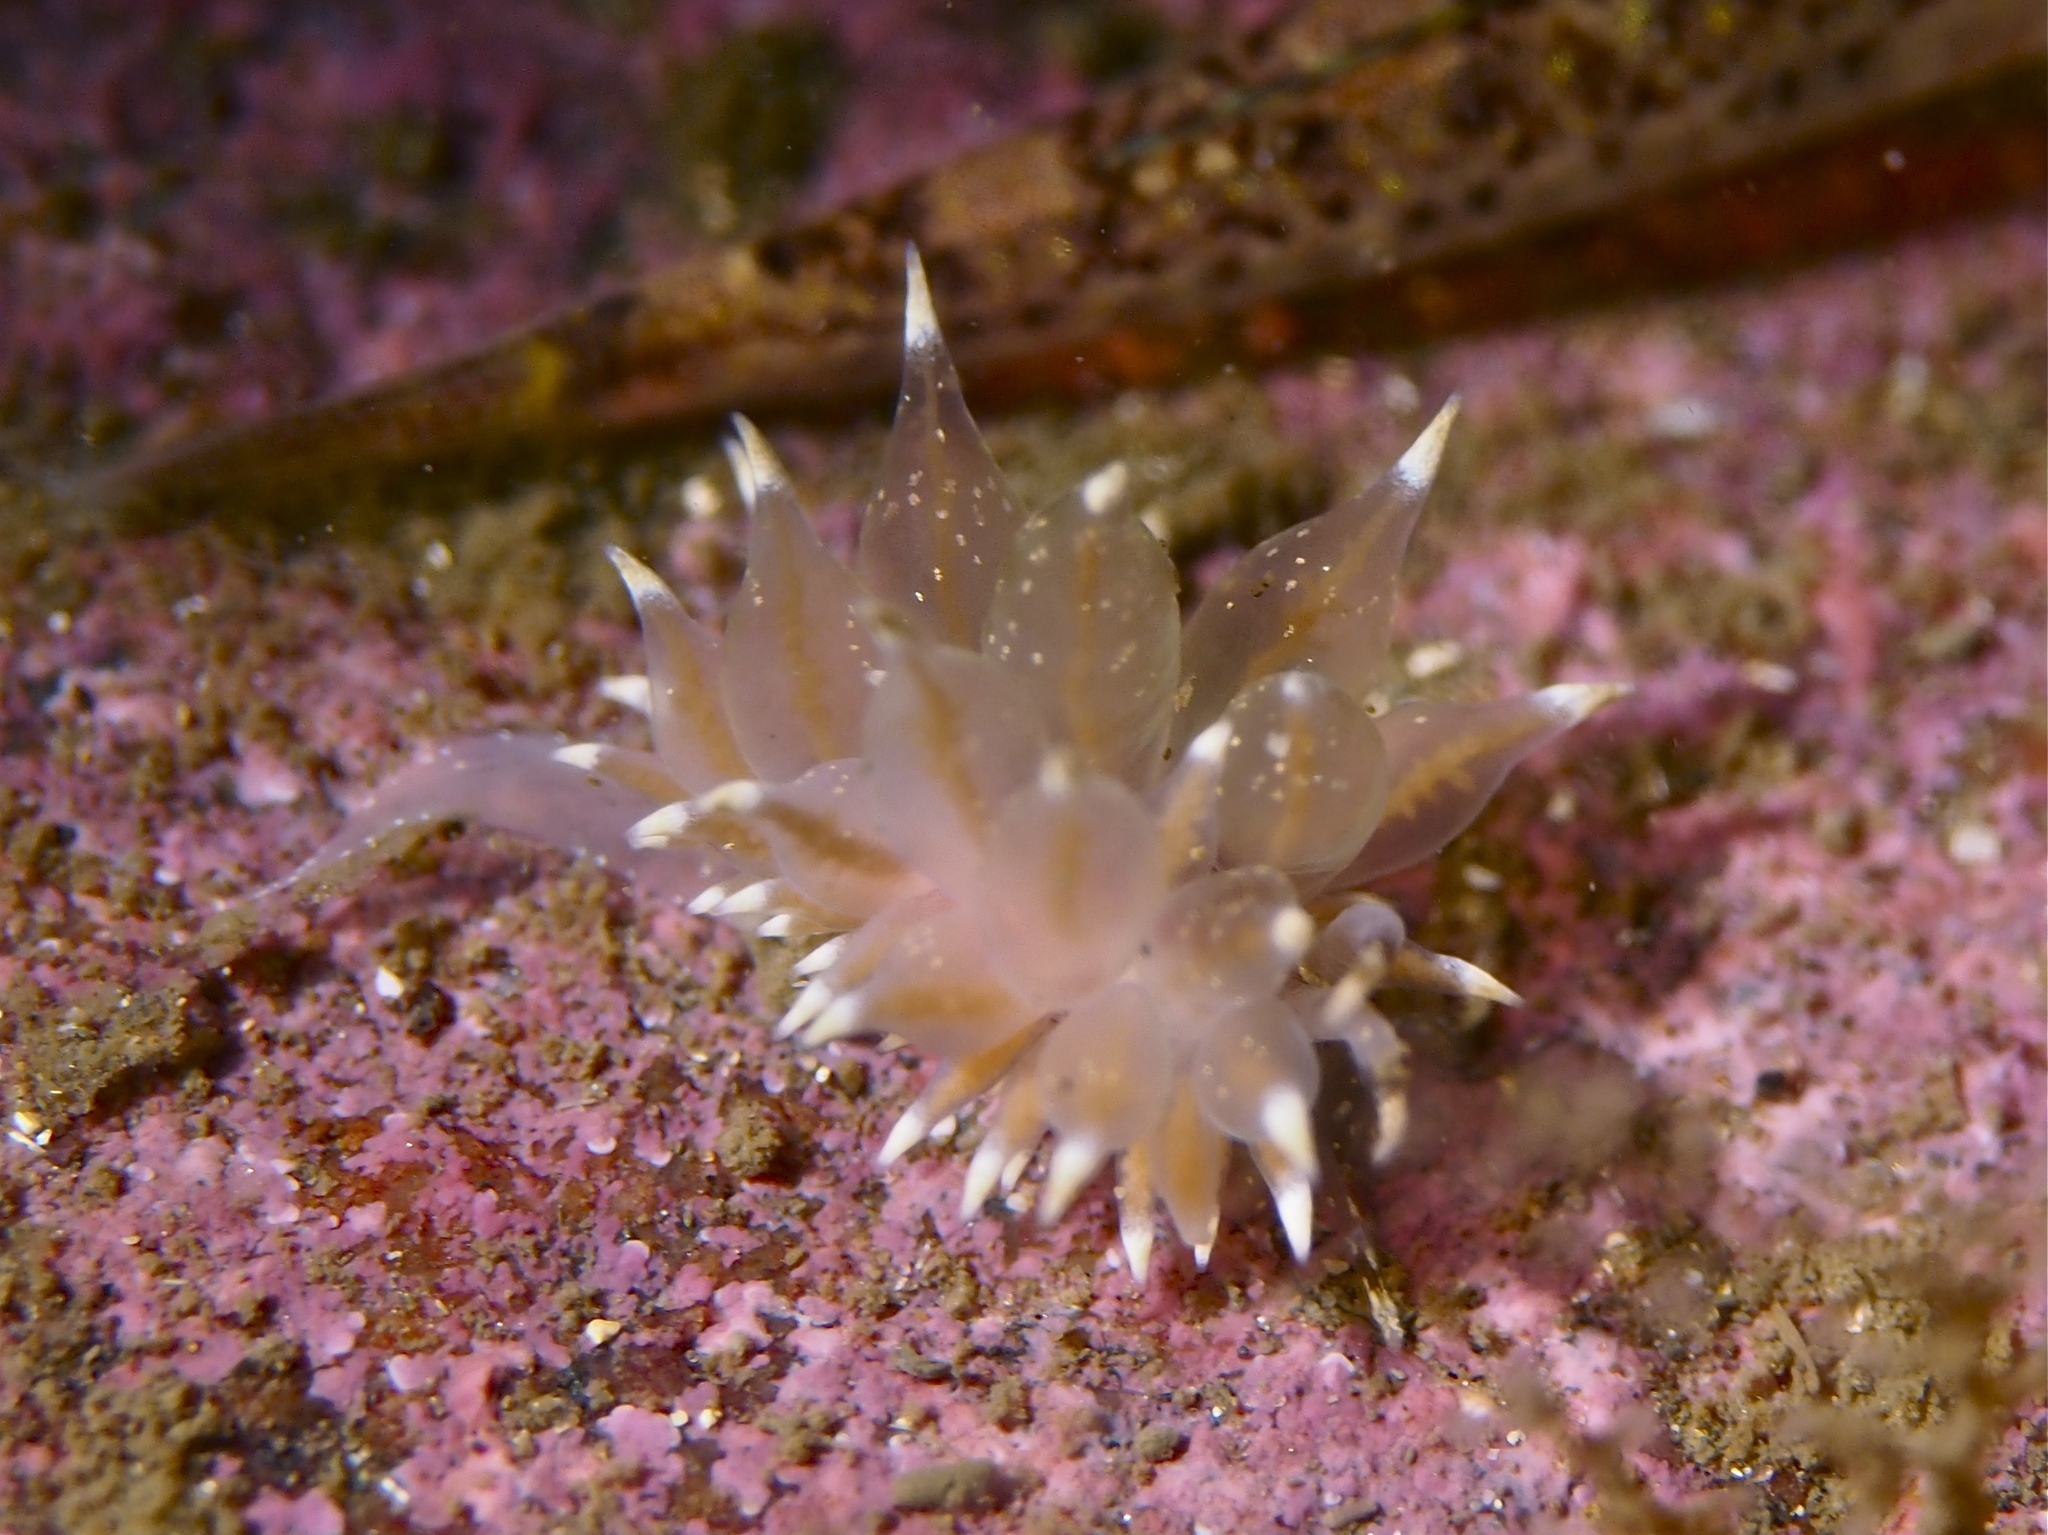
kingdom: Animalia
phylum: Mollusca
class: Gastropoda
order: Nudibranchia
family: Eubranchidae
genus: Amphorina
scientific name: Amphorina linensis
